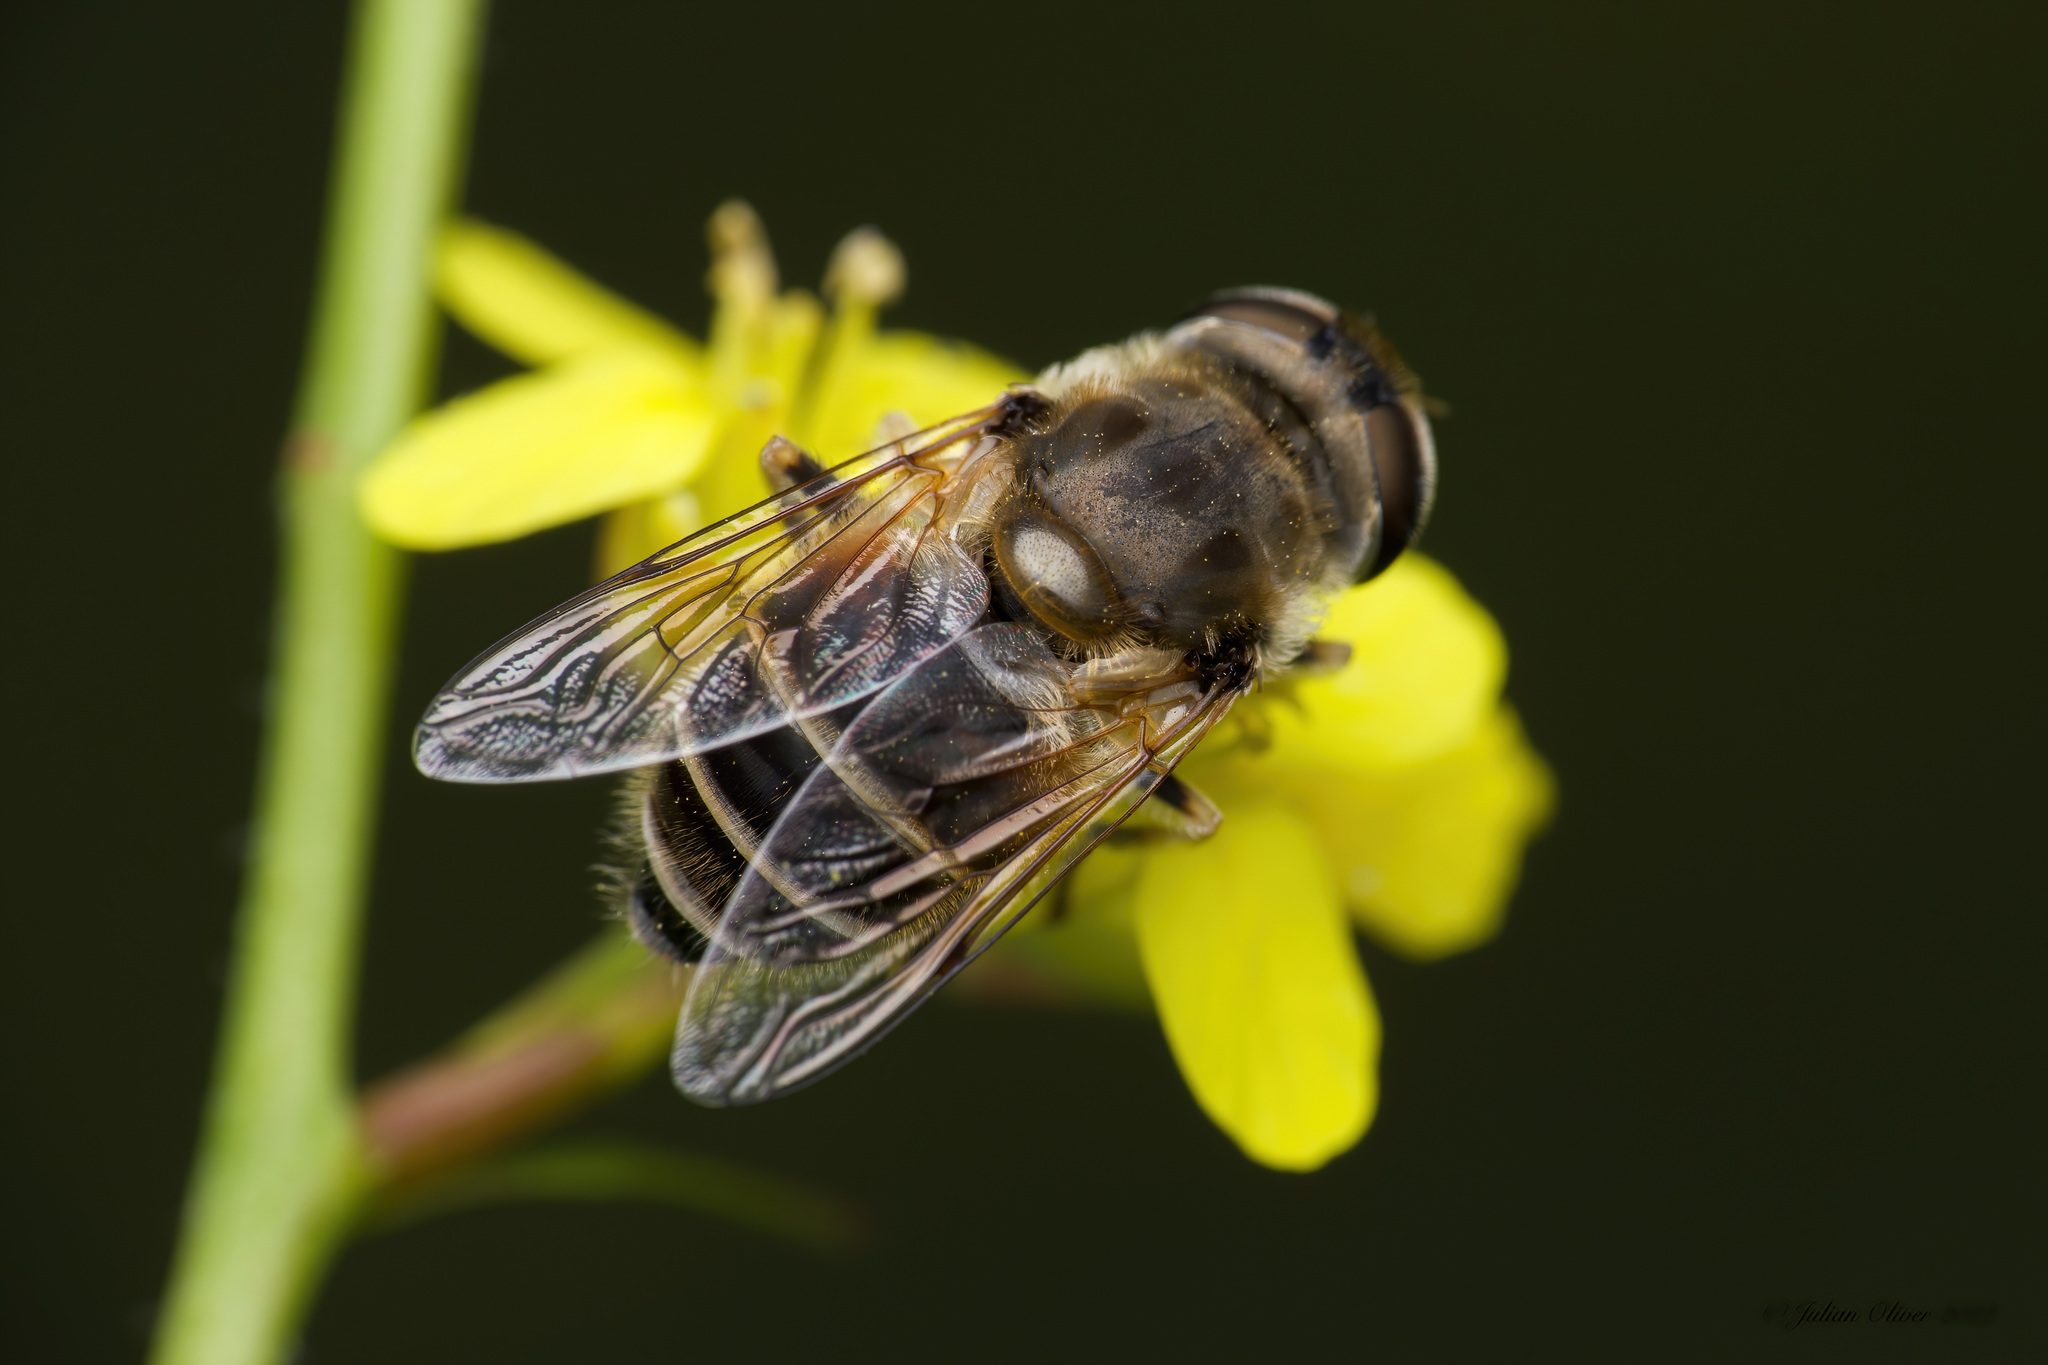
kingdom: Animalia
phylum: Arthropoda
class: Insecta
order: Diptera
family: Syrphidae
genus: Eoseristalis
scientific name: Eoseristalis
